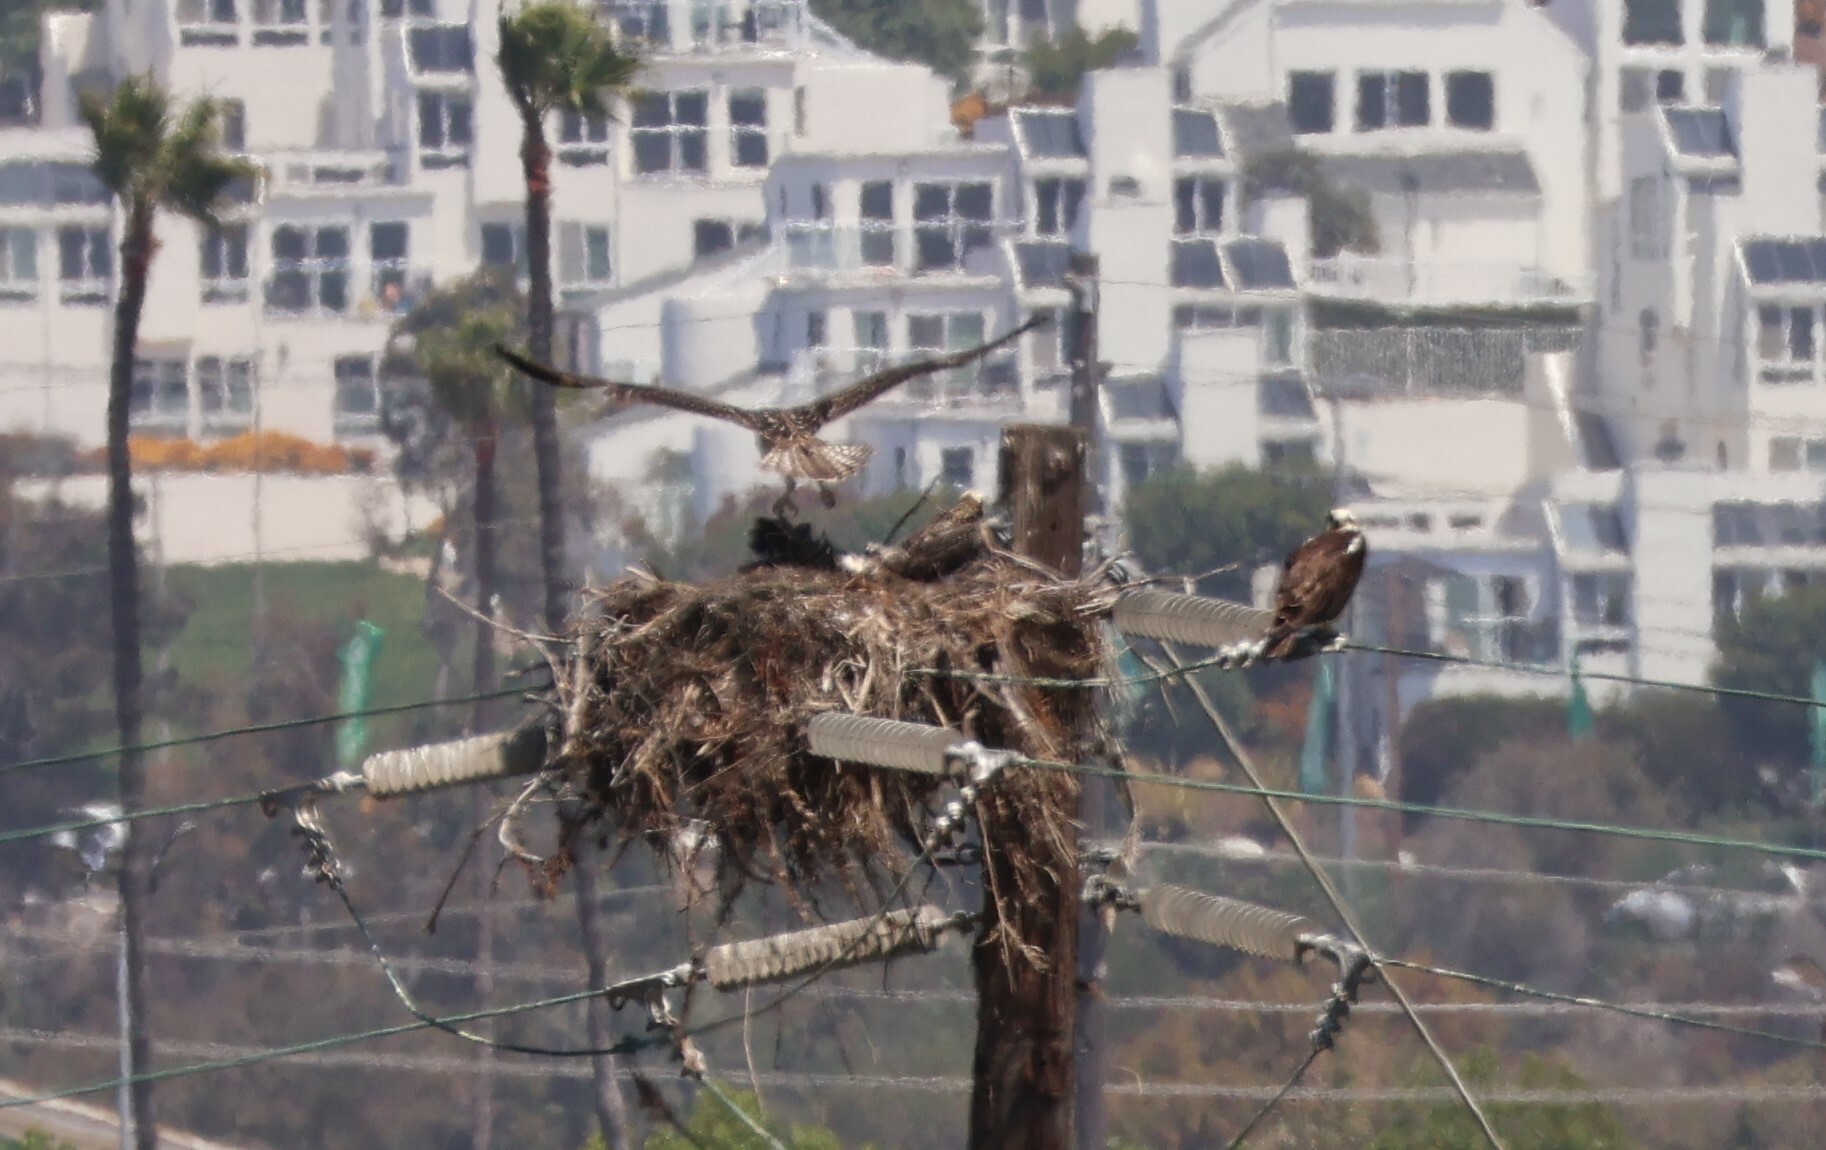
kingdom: Animalia
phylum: Chordata
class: Aves
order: Accipitriformes
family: Pandionidae
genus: Pandion
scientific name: Pandion haliaetus
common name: Osprey
